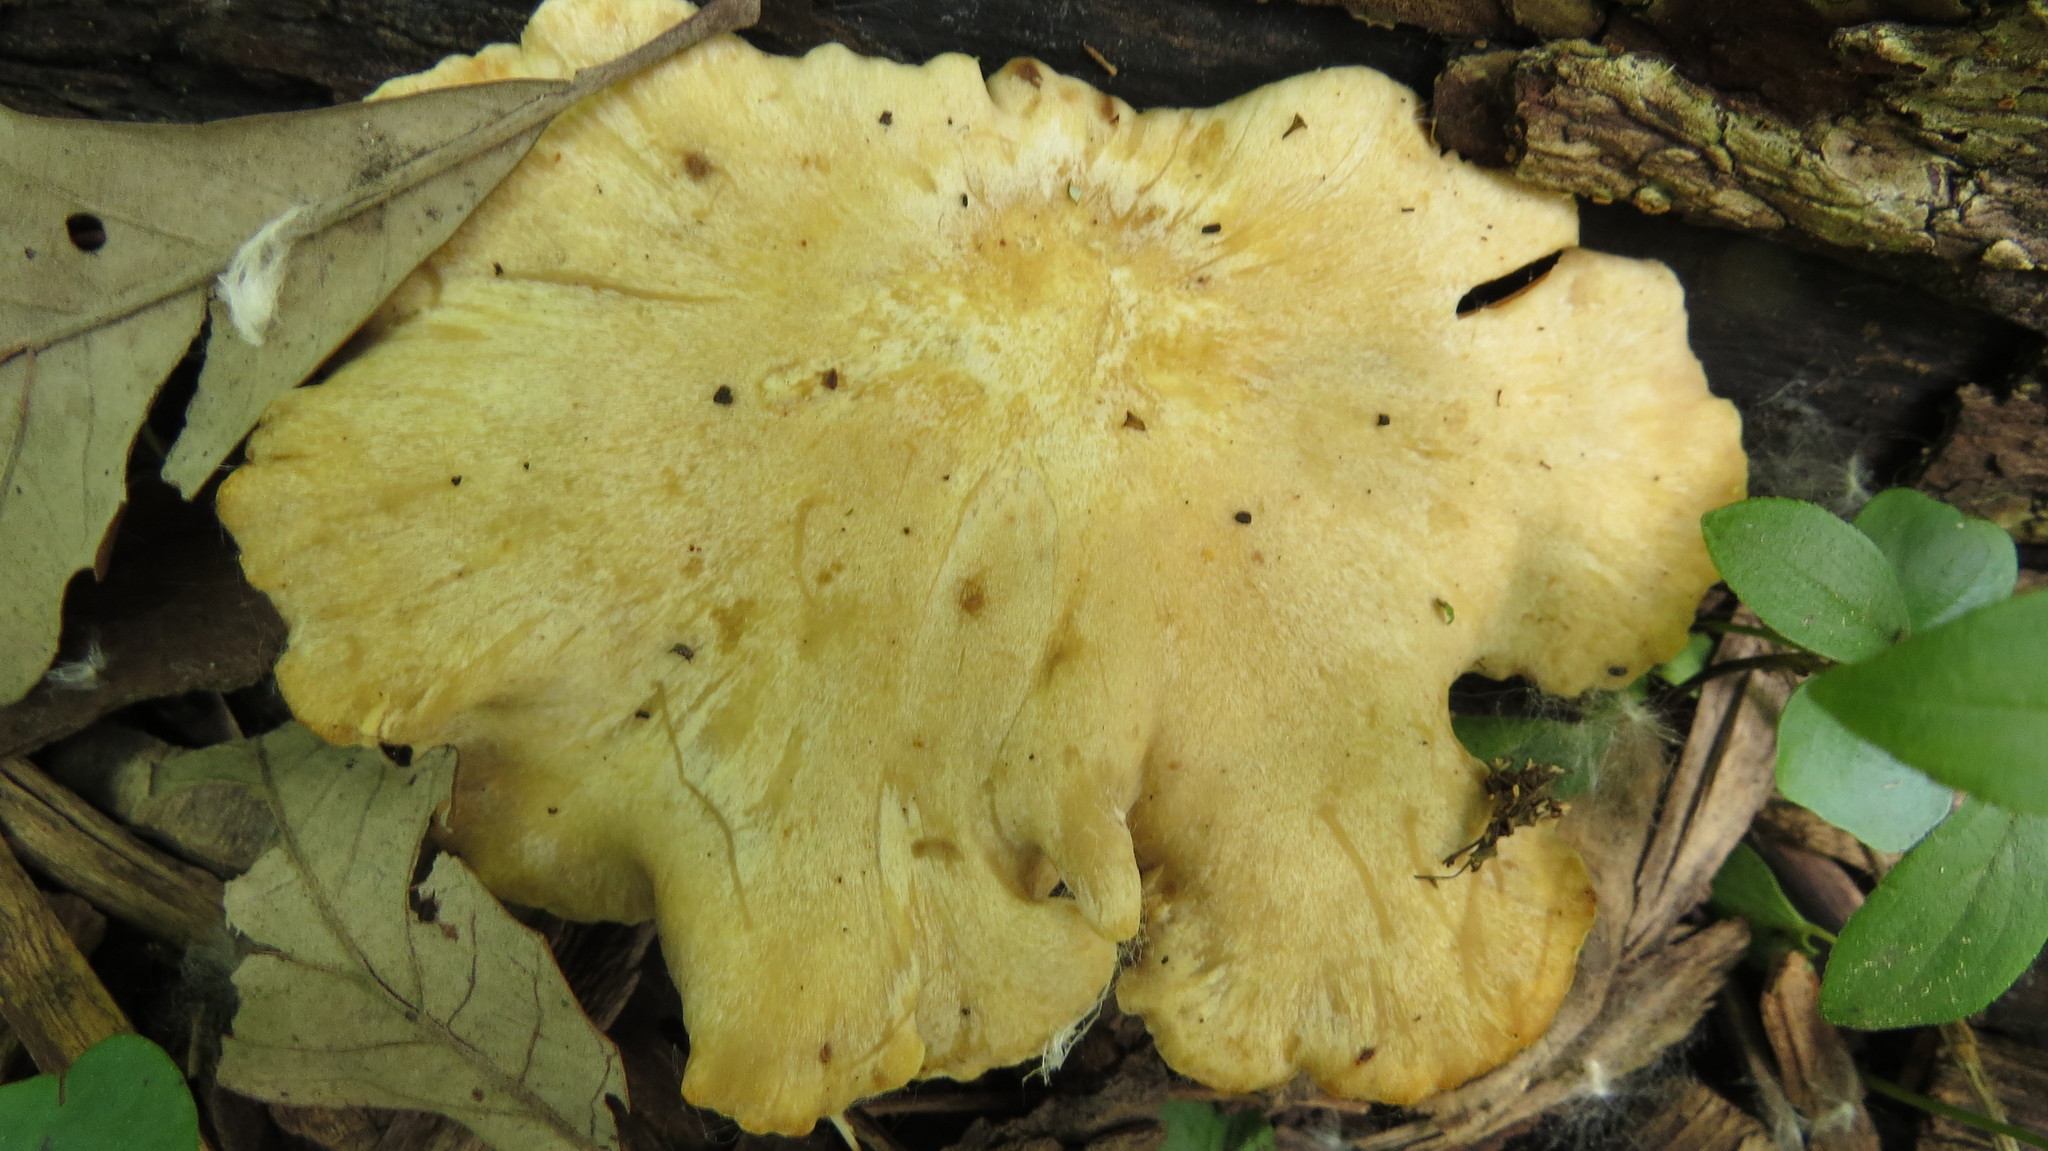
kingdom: Fungi
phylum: Basidiomycota
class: Agaricomycetes
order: Polyporales
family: Polyporaceae
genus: Cerioporus
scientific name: Cerioporus leptocephalus
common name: Blackfoot polypore
